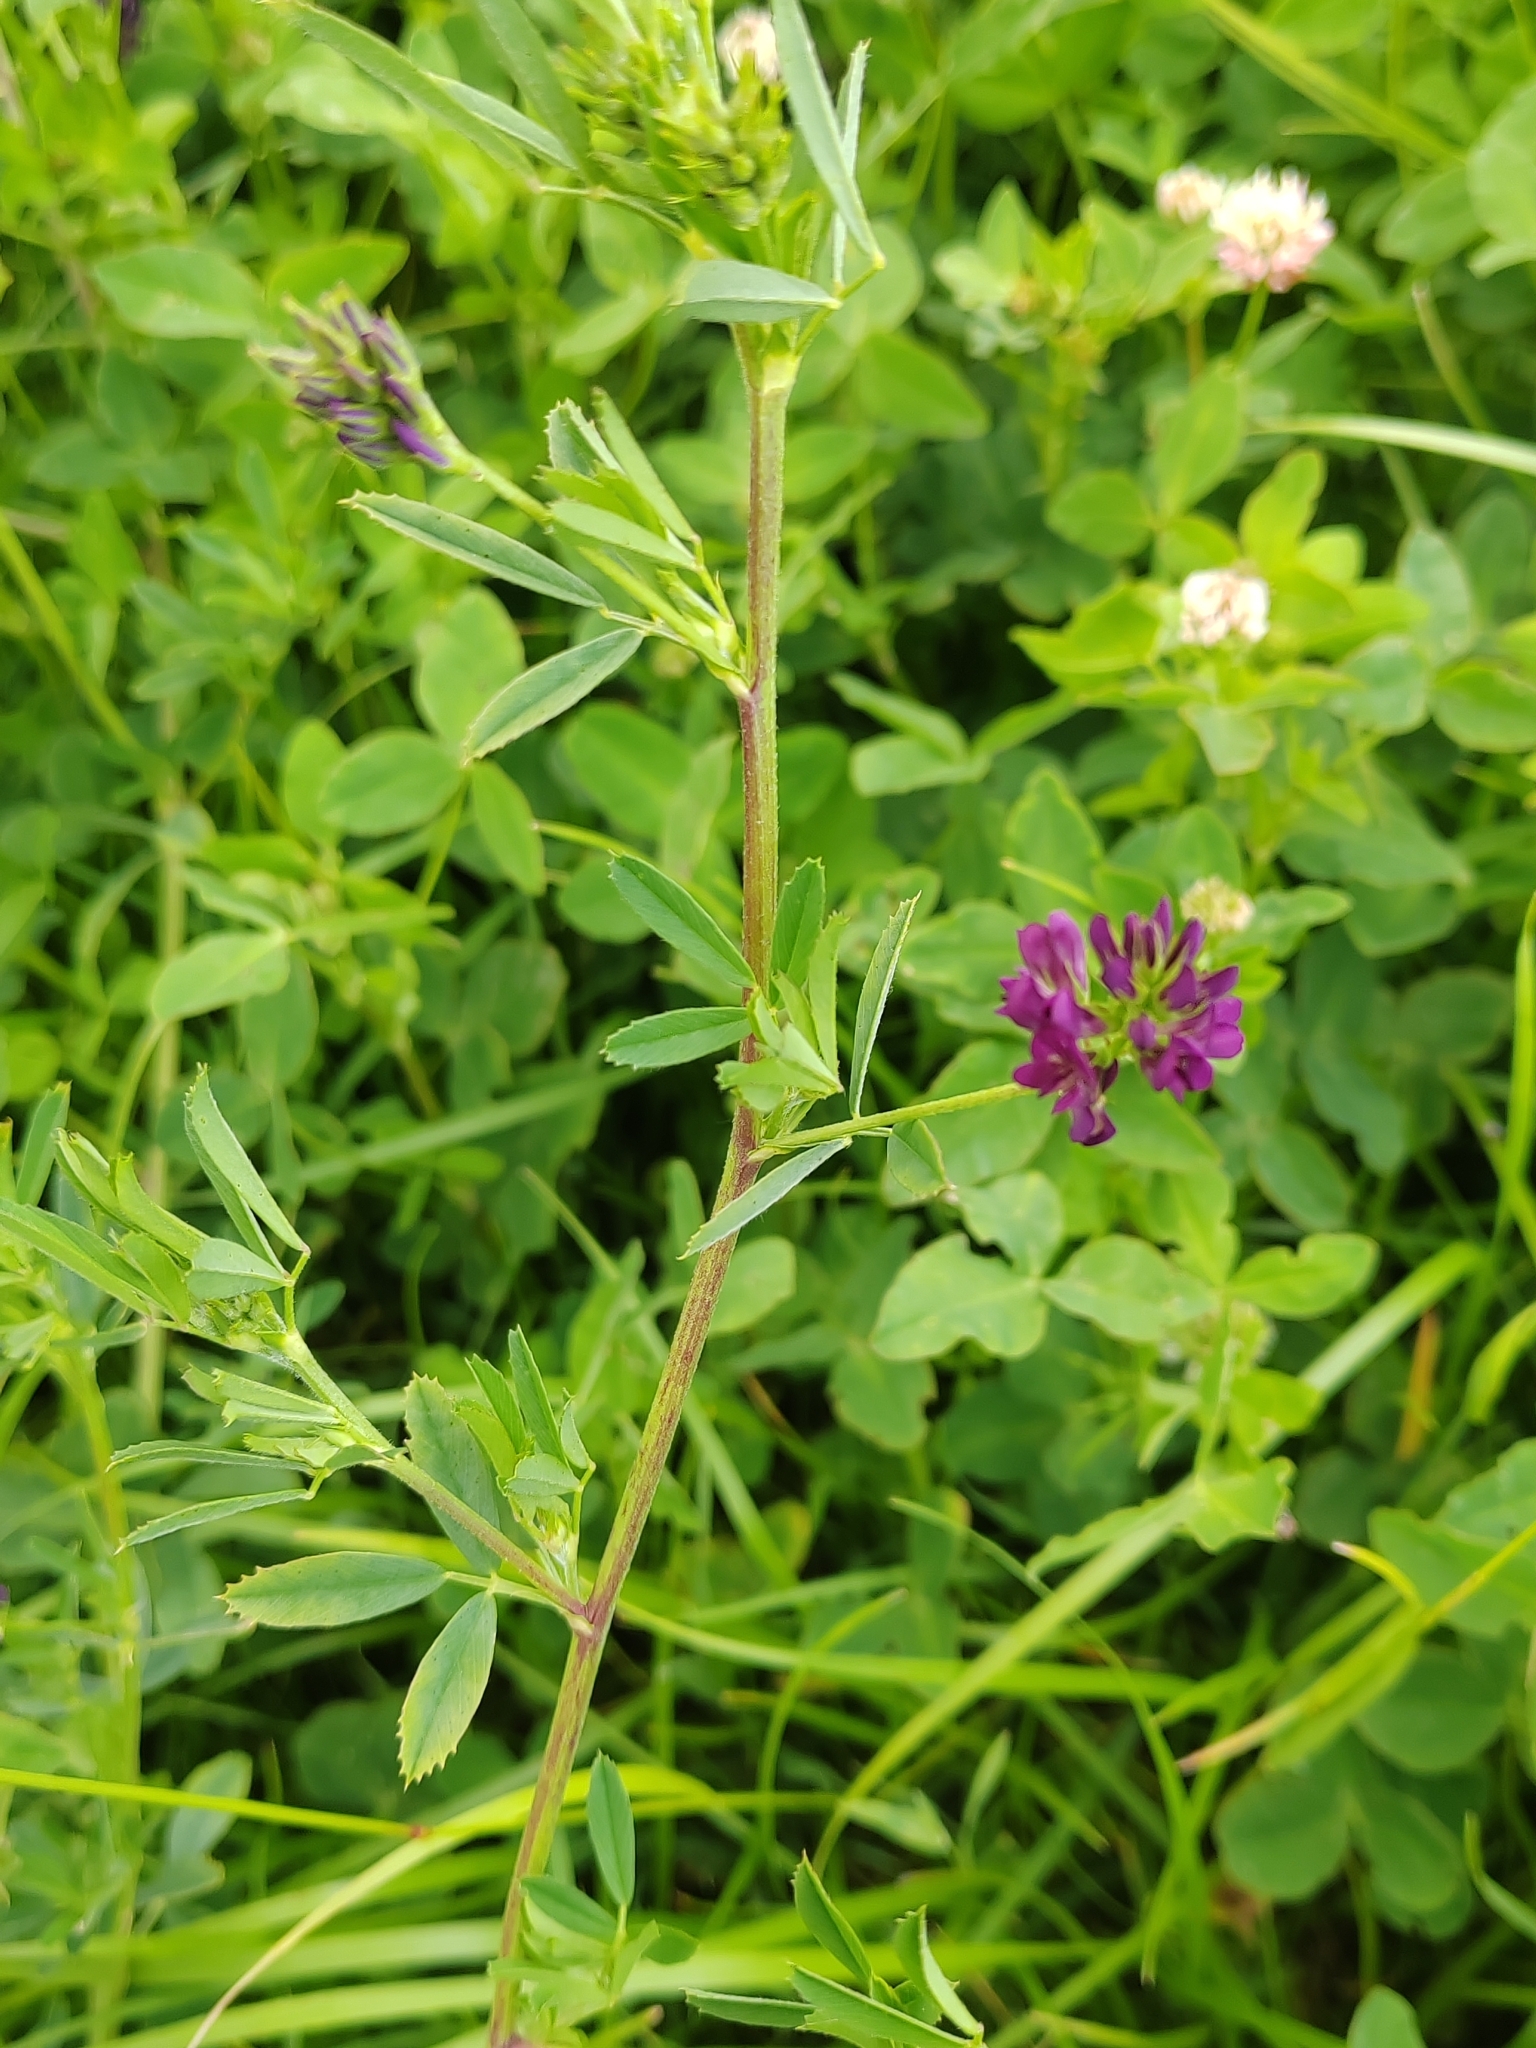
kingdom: Plantae
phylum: Tracheophyta
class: Magnoliopsida
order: Fabales
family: Fabaceae
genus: Medicago
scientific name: Medicago varia
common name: Sand lucerne
